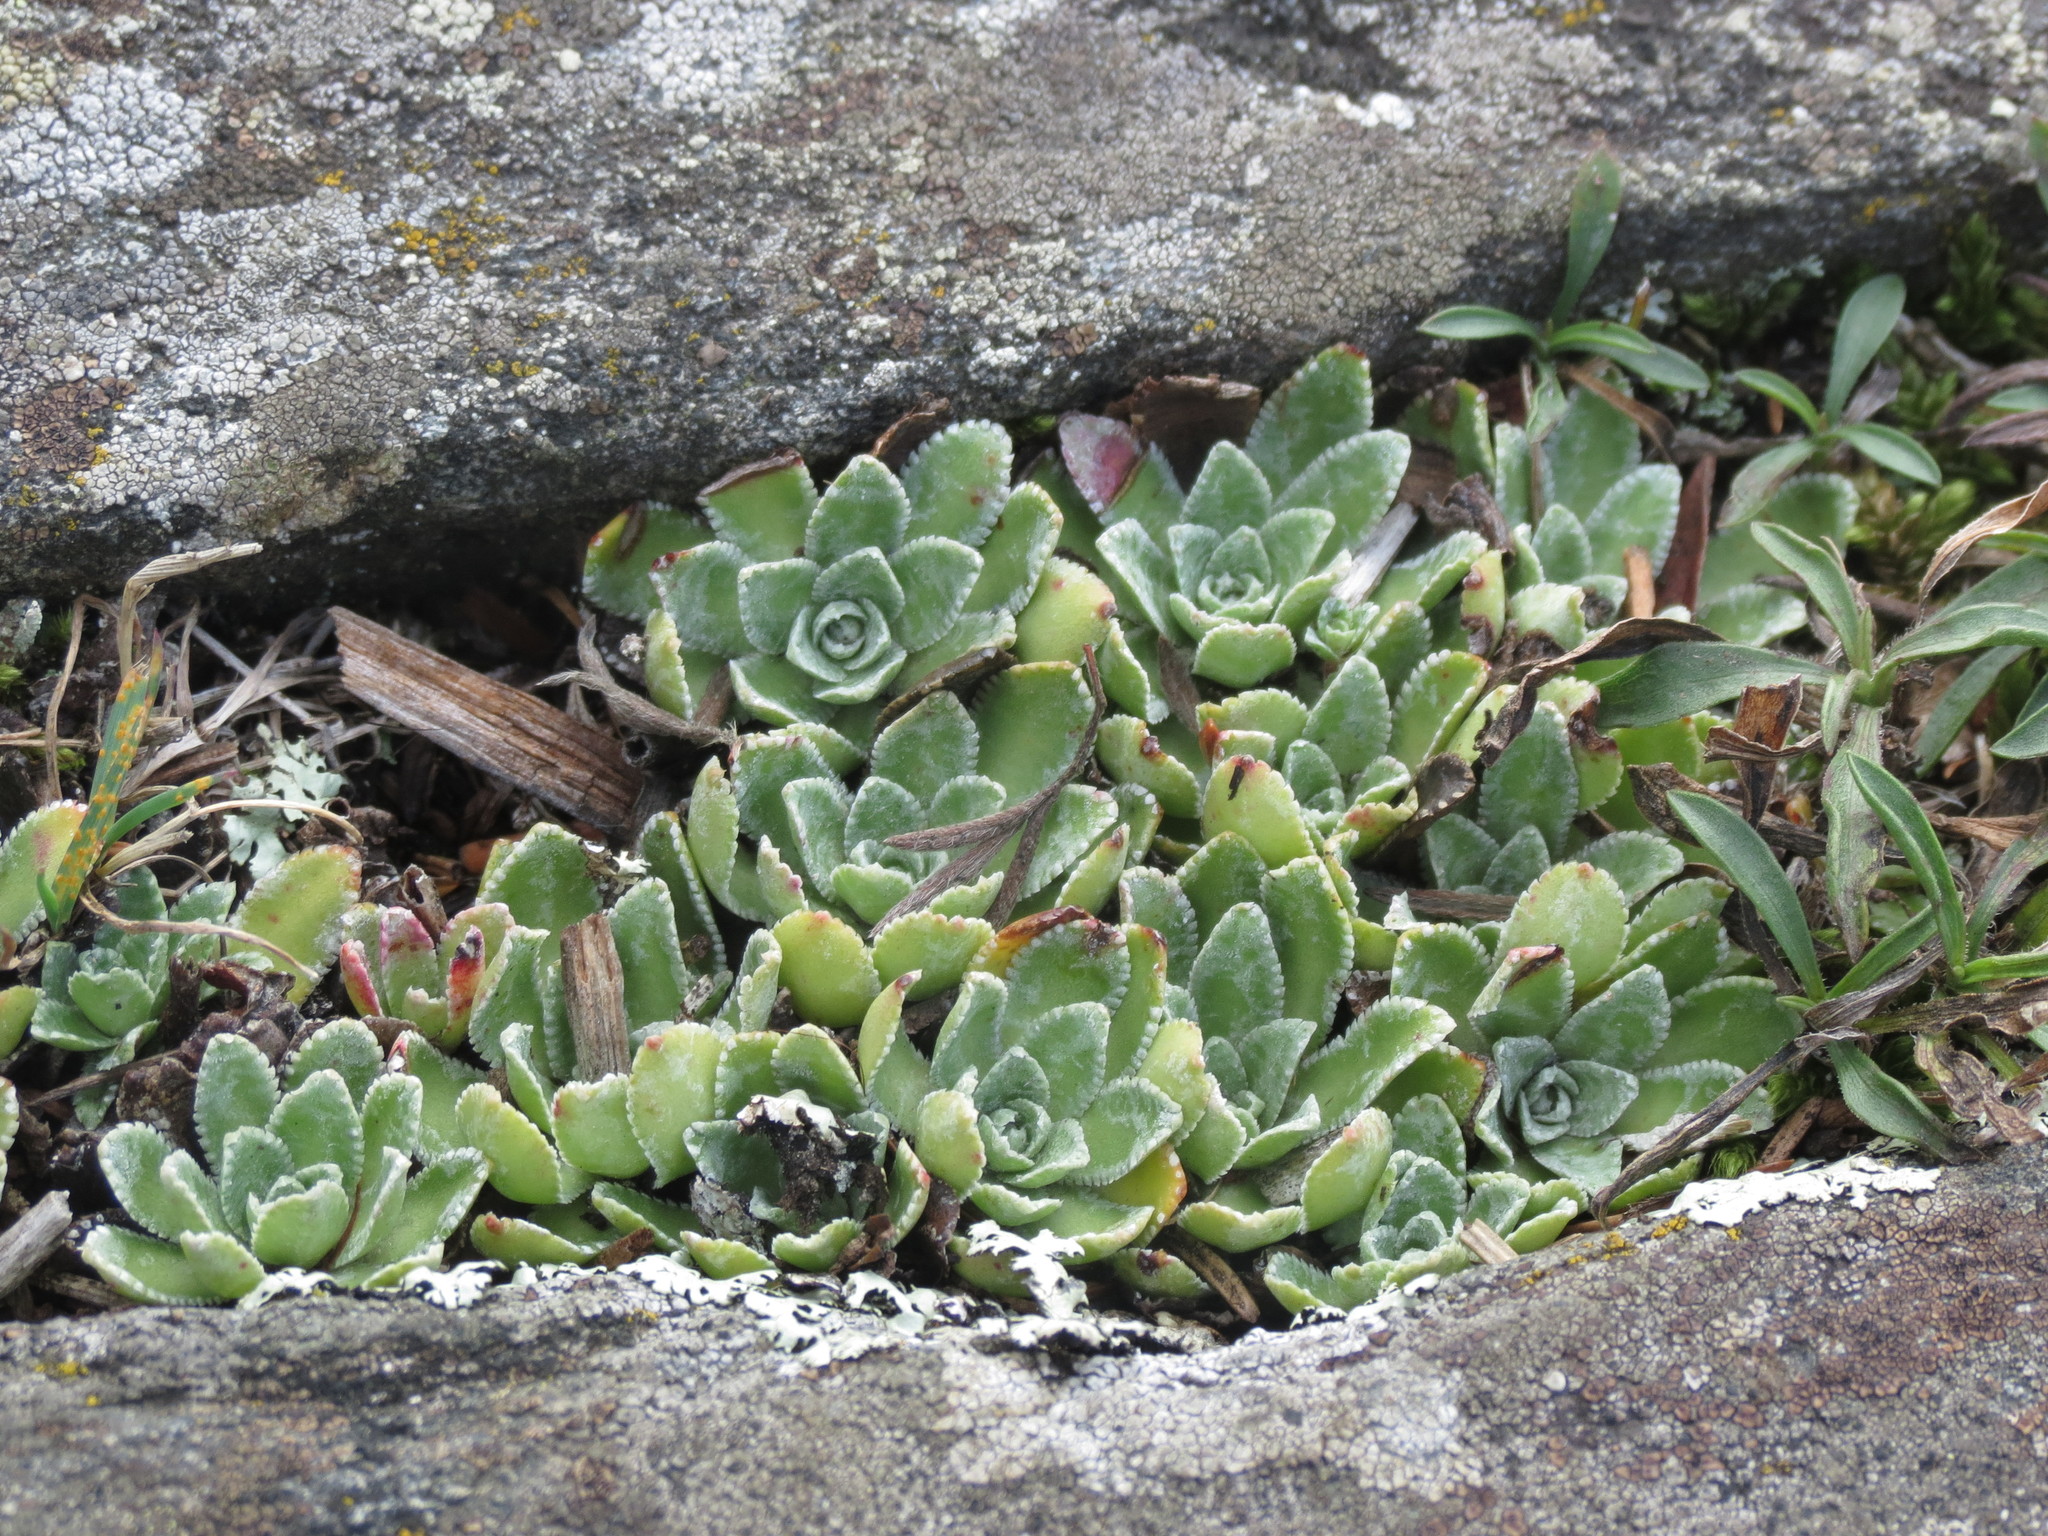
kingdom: Plantae
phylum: Tracheophyta
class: Magnoliopsida
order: Saxifragales
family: Saxifragaceae
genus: Saxifraga
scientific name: Saxifraga paniculata
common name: Livelong saxifrage
